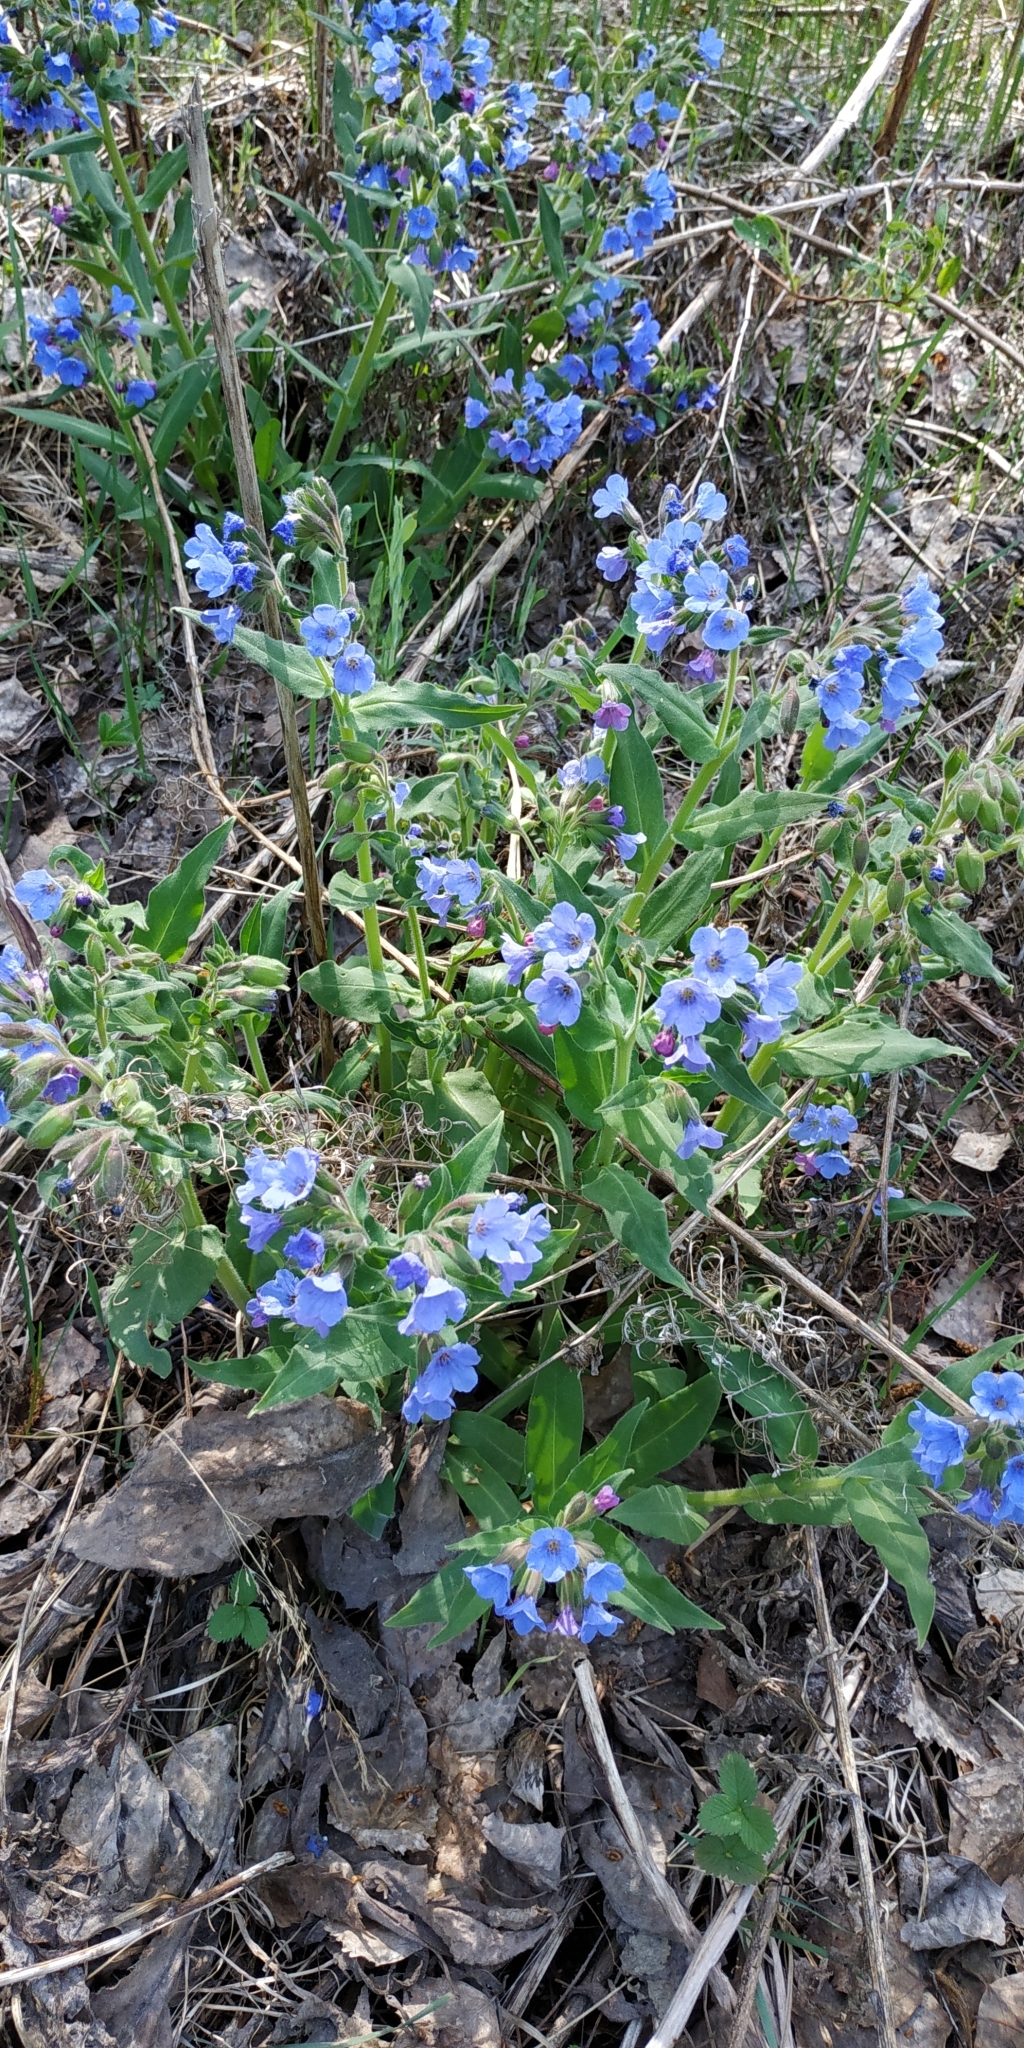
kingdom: Plantae
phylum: Tracheophyta
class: Magnoliopsida
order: Boraginales
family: Boraginaceae
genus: Pulmonaria
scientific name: Pulmonaria mollis
